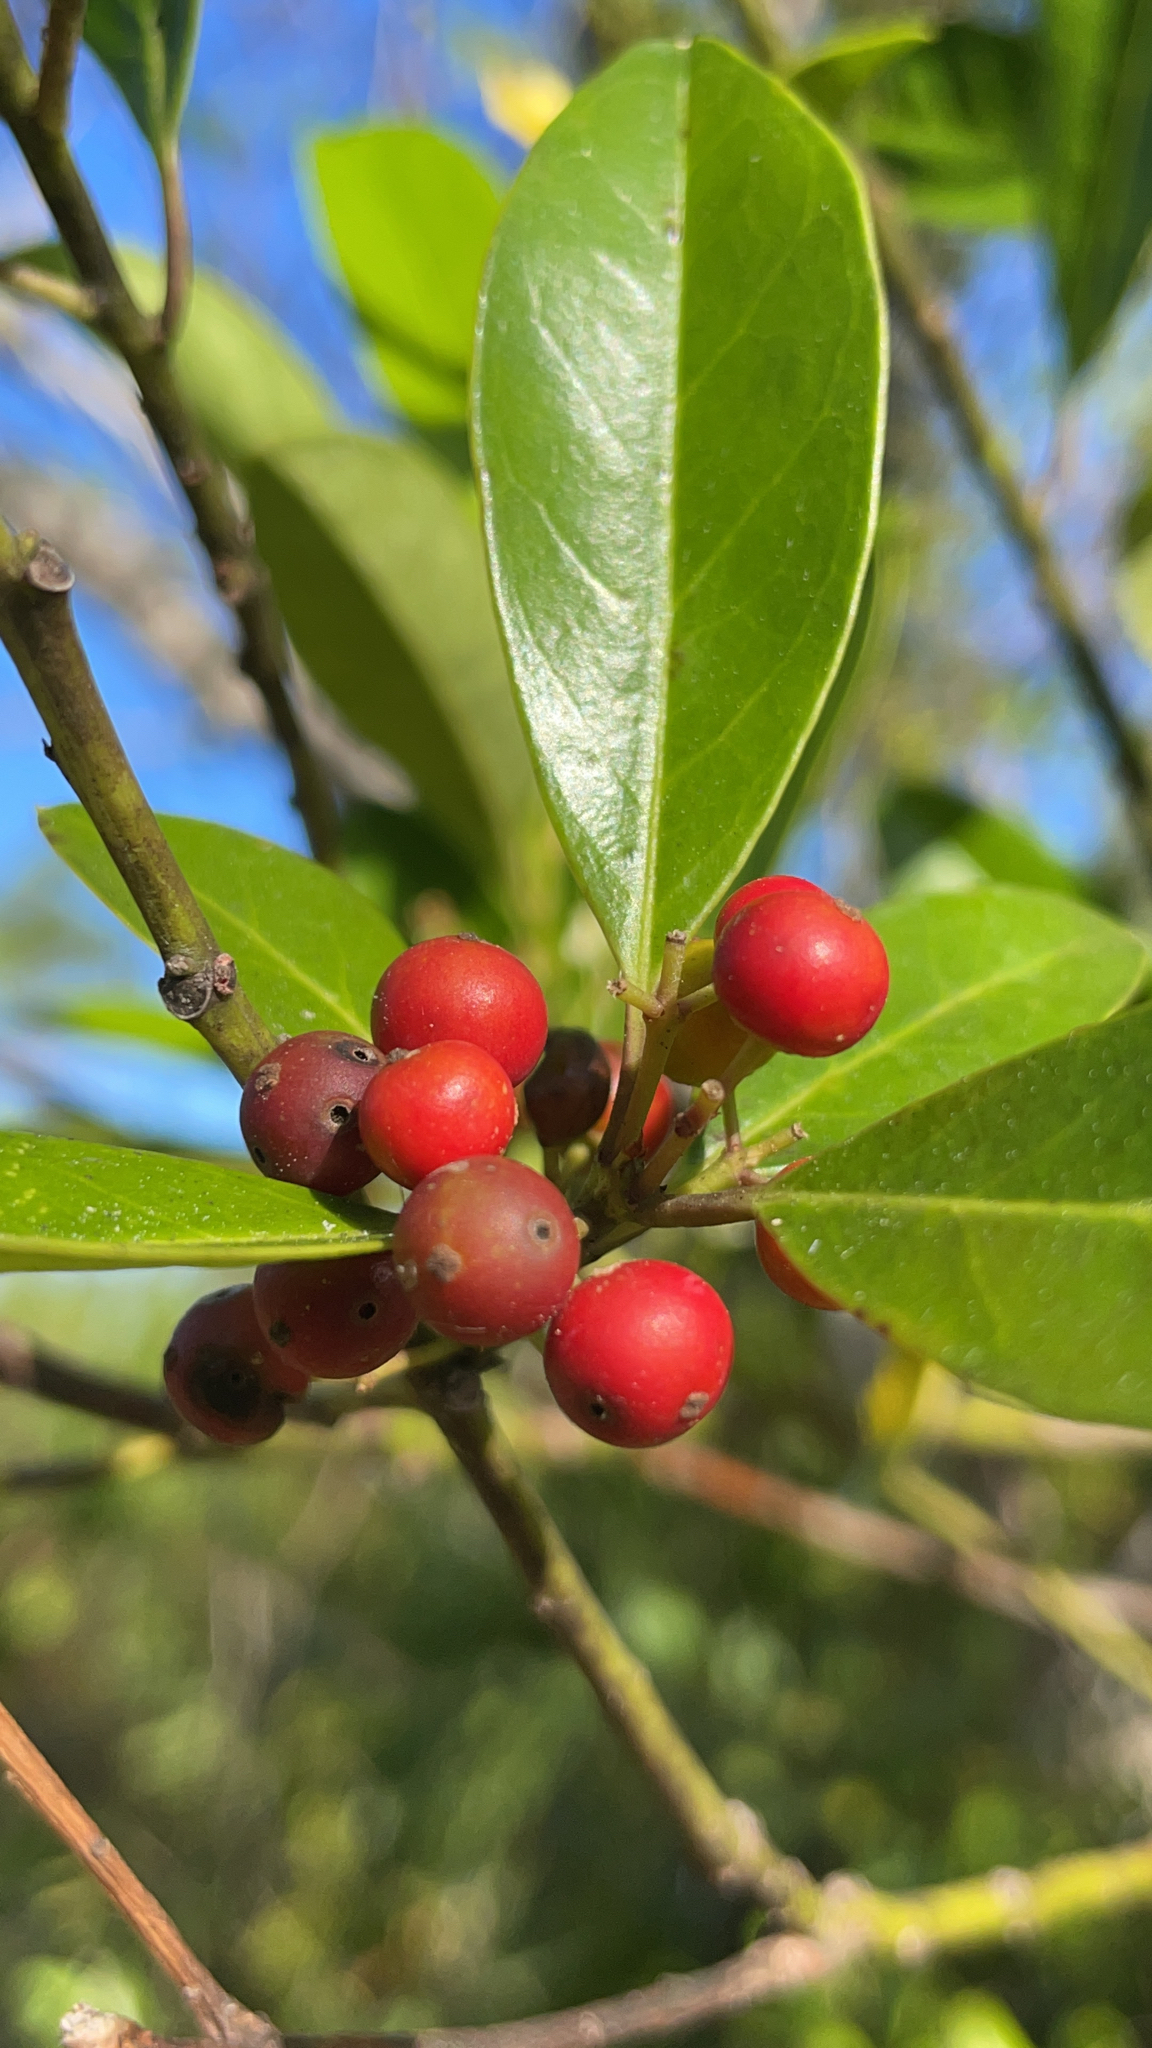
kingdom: Plantae
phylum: Tracheophyta
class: Magnoliopsida
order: Aquifoliales
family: Aquifoliaceae
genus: Ilex
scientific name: Ilex cassine
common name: Dahoon
